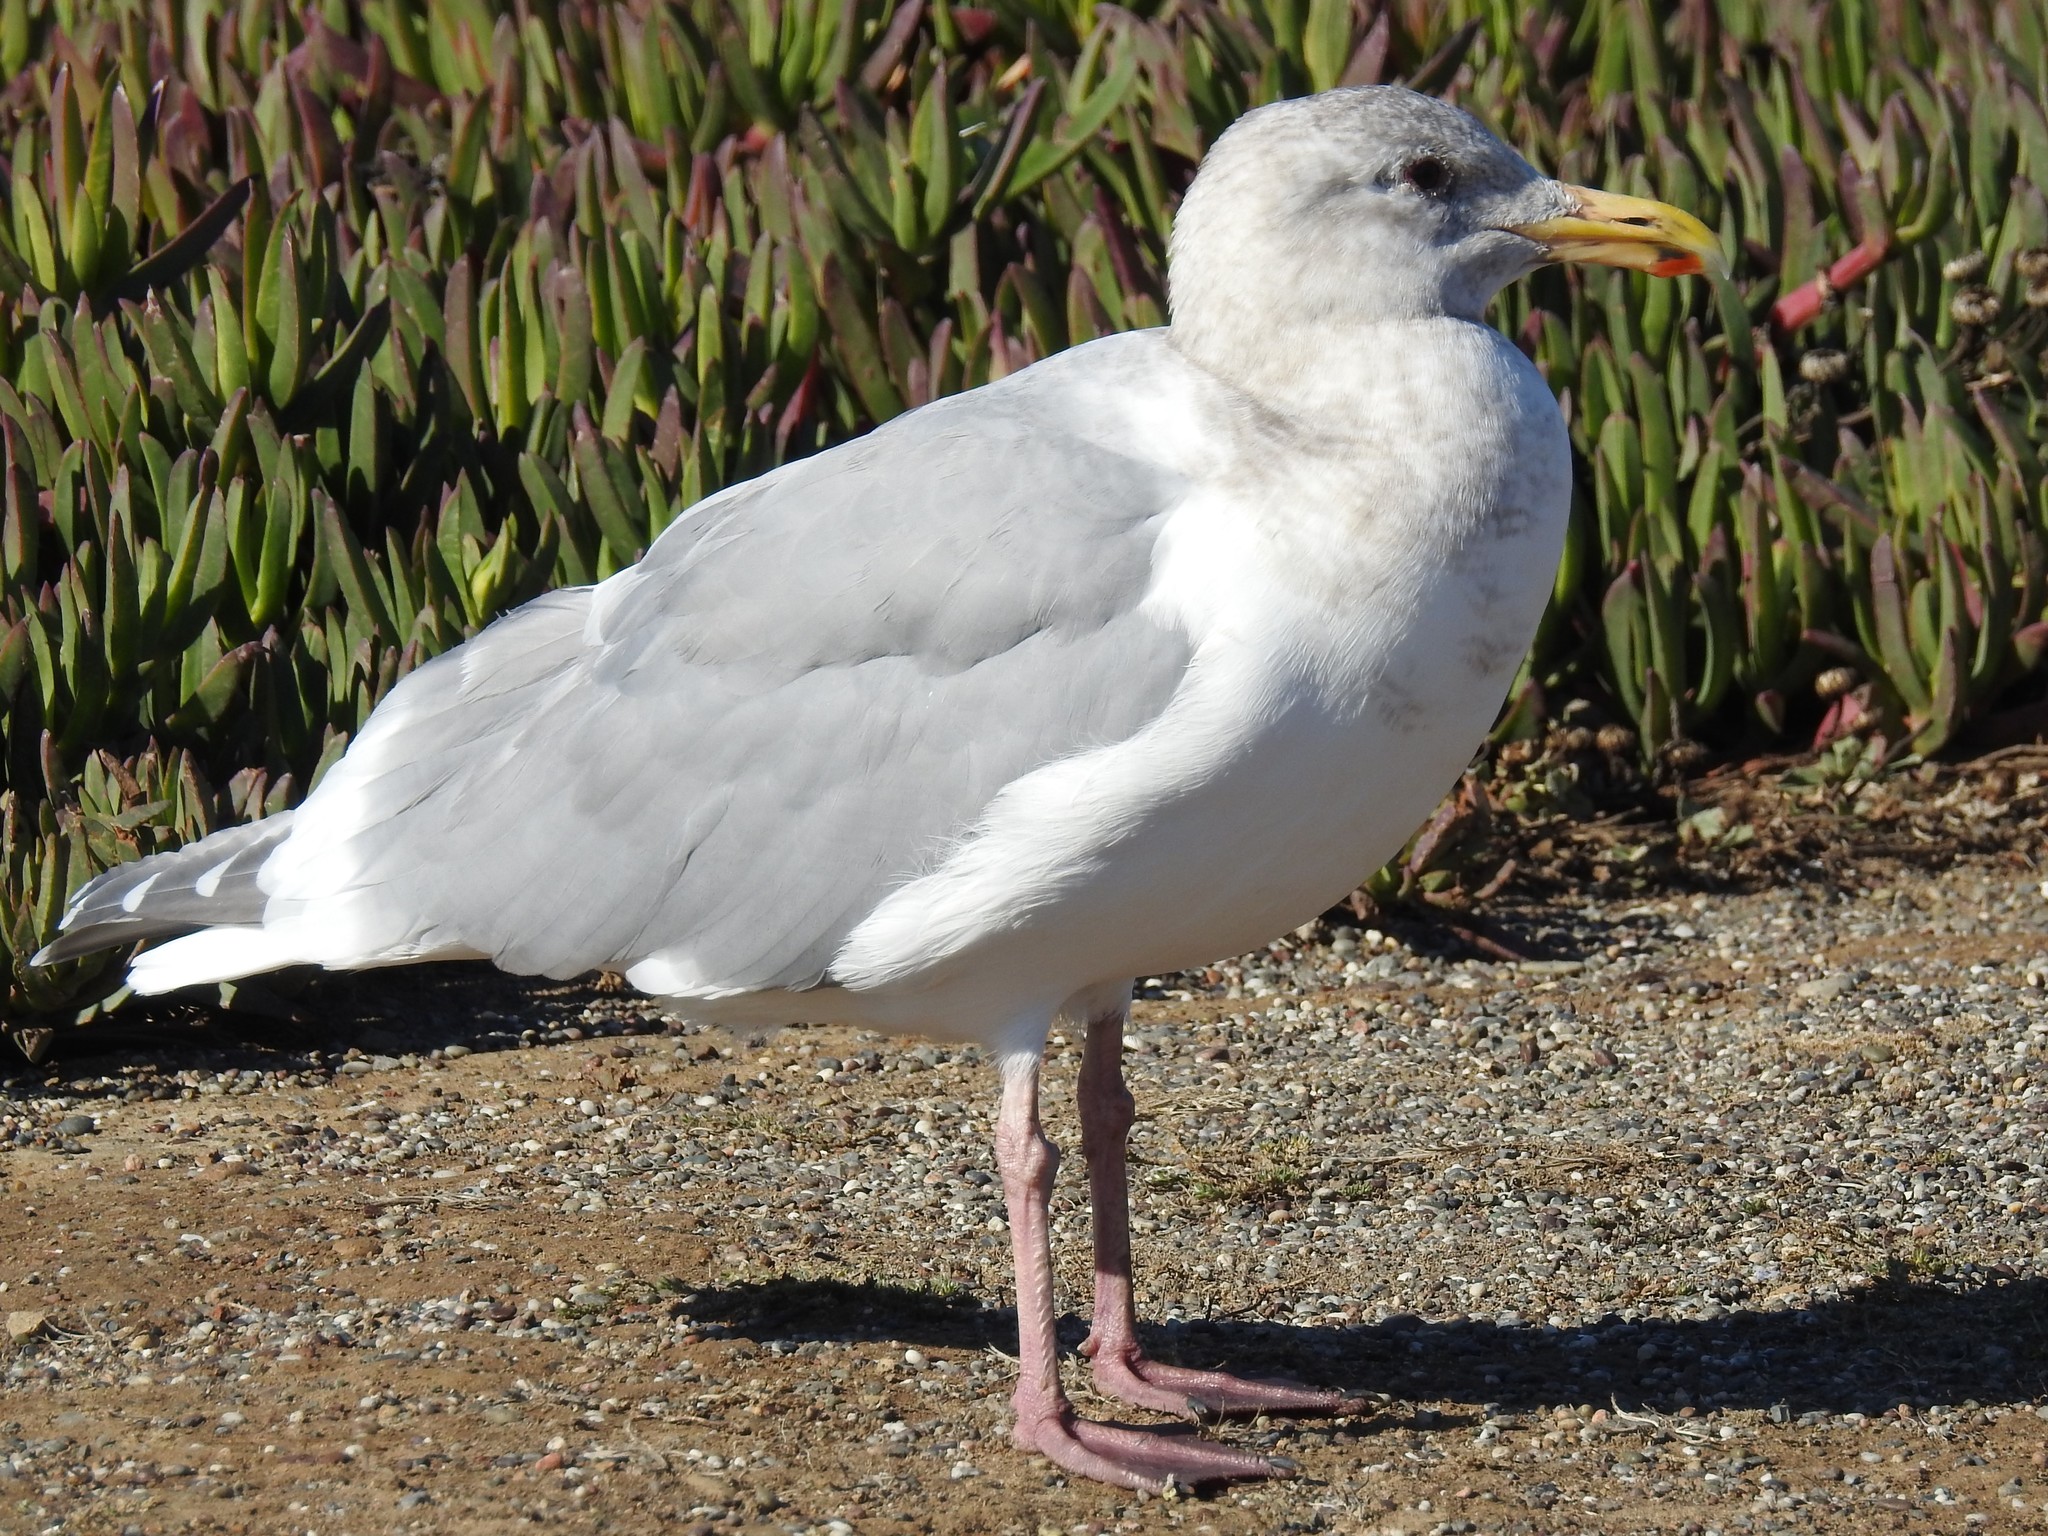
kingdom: Animalia
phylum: Chordata
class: Aves
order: Charadriiformes
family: Laridae
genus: Larus
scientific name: Larus
